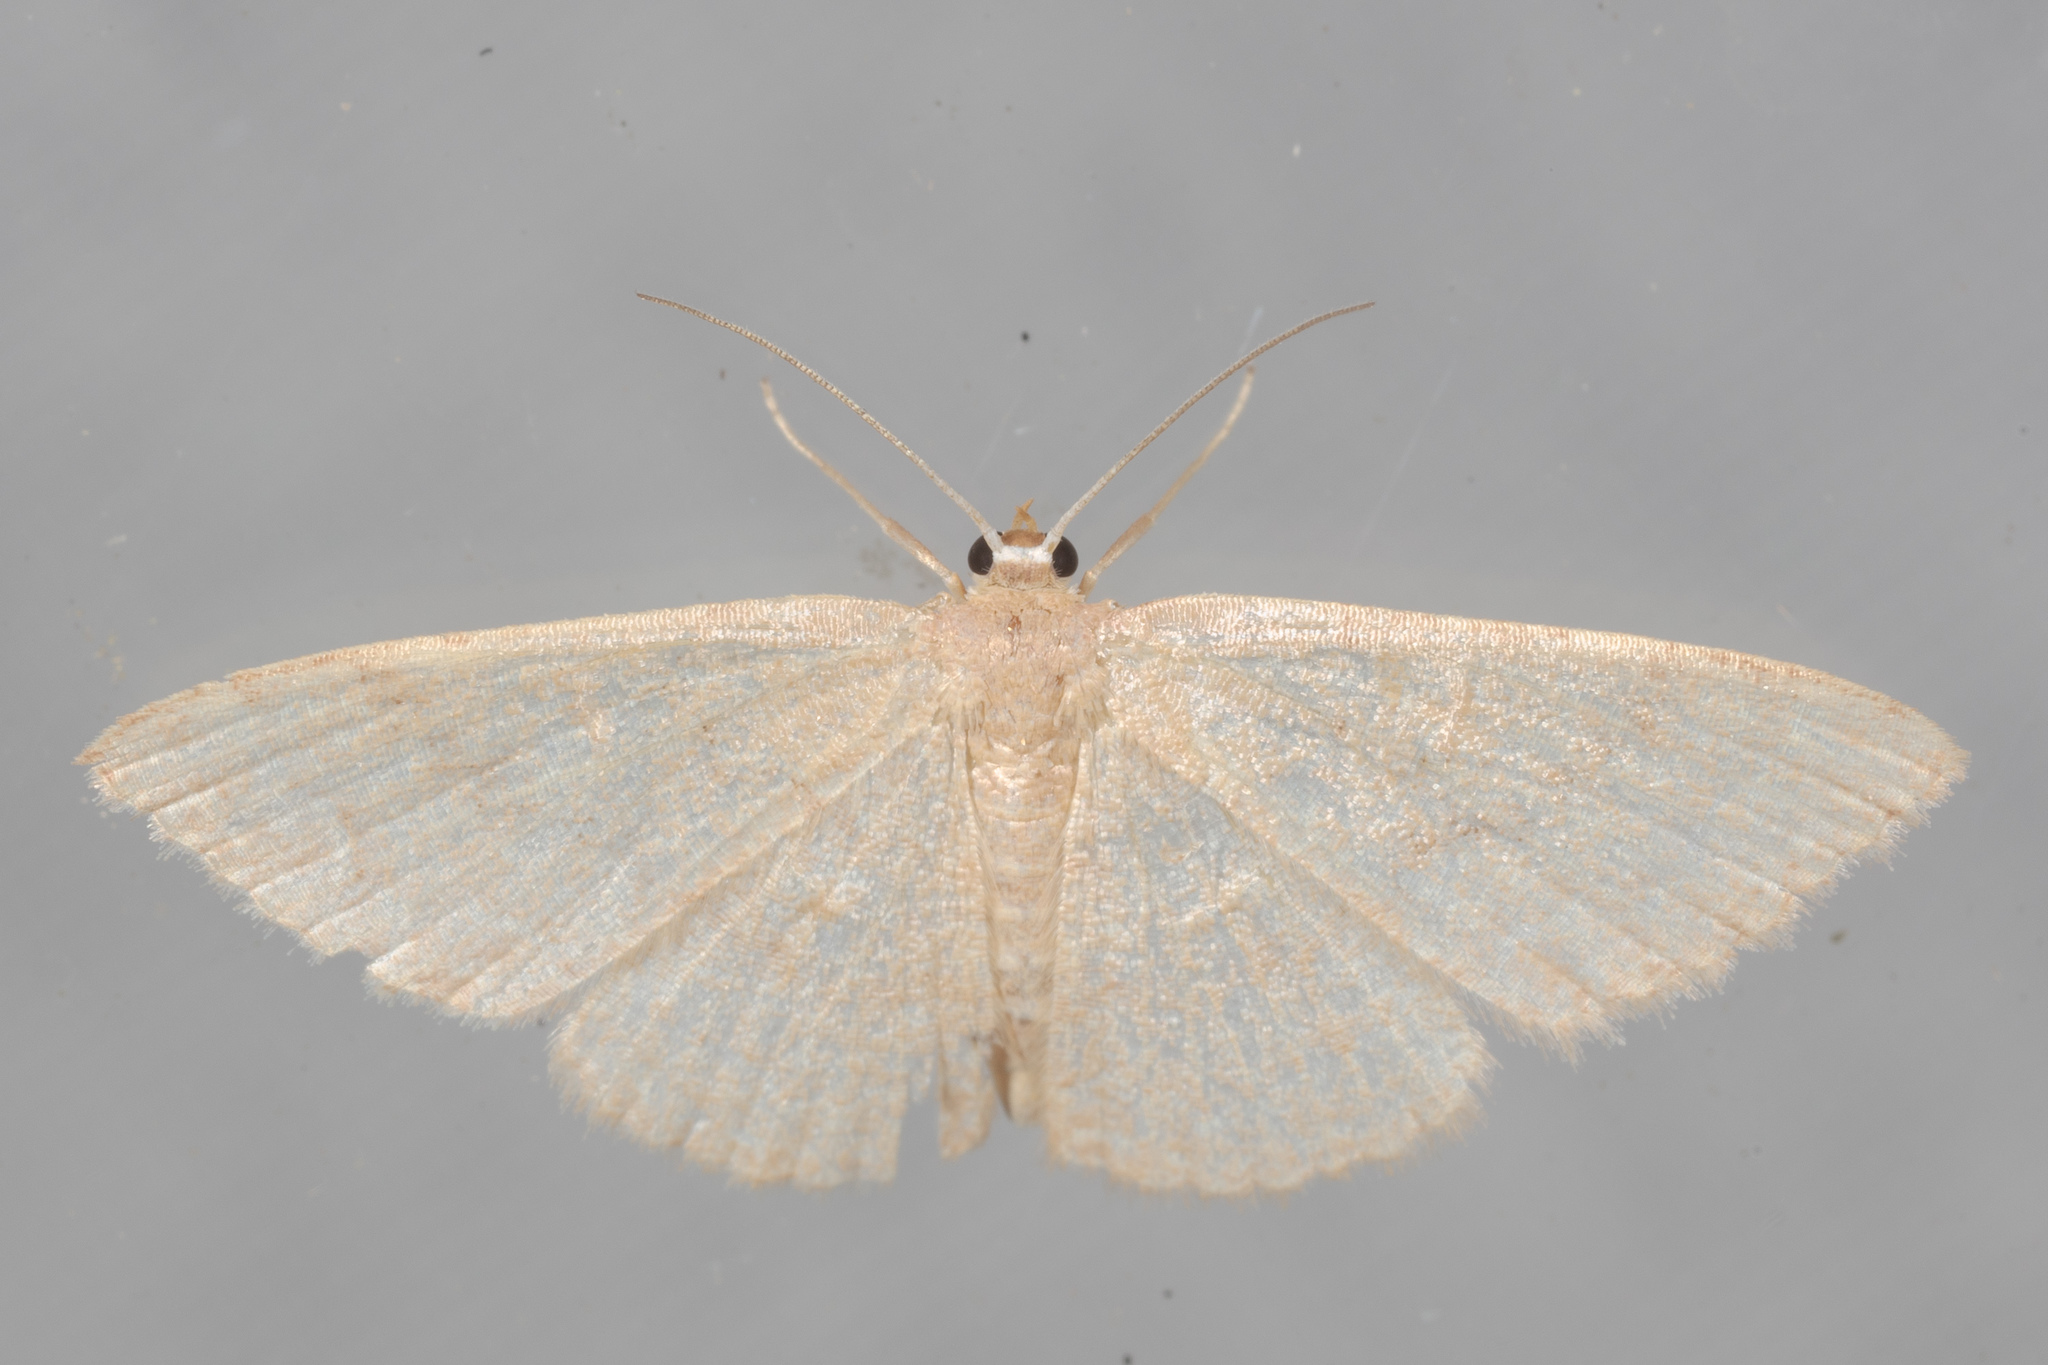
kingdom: Animalia
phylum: Arthropoda
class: Insecta
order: Lepidoptera
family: Geometridae
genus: Pleuroprucha
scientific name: Pleuroprucha insulsaria
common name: Common tan wave
